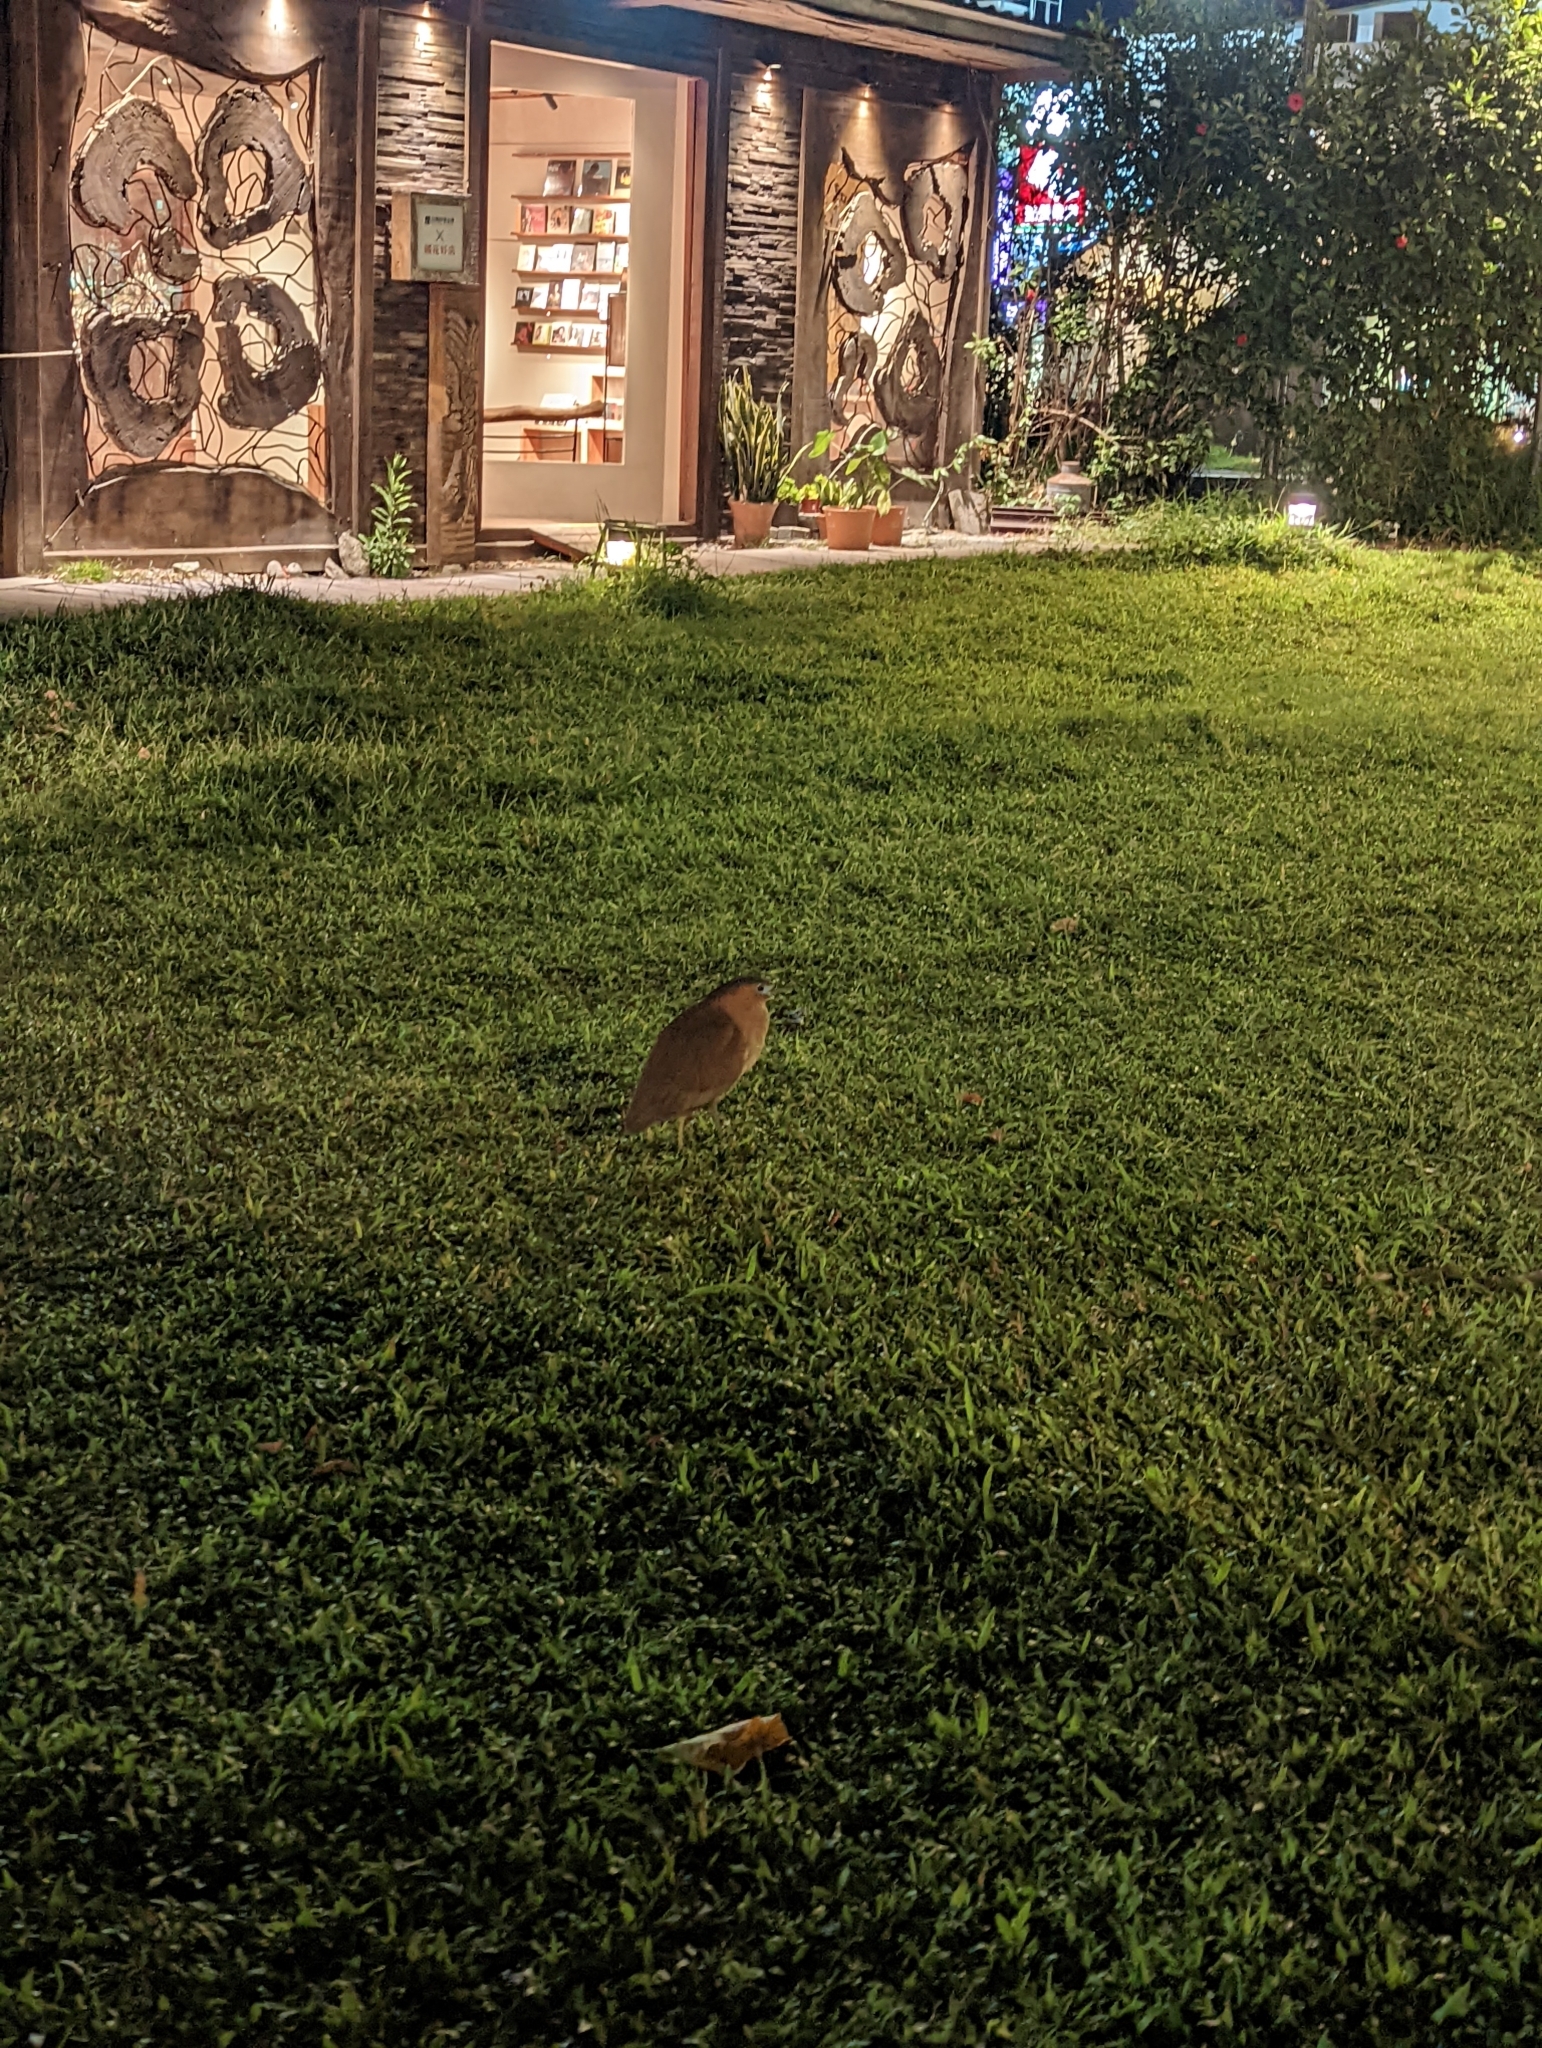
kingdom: Animalia
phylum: Chordata
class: Aves
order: Pelecaniformes
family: Ardeidae
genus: Gorsachius
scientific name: Gorsachius melanolophus
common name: Malayan night heron
